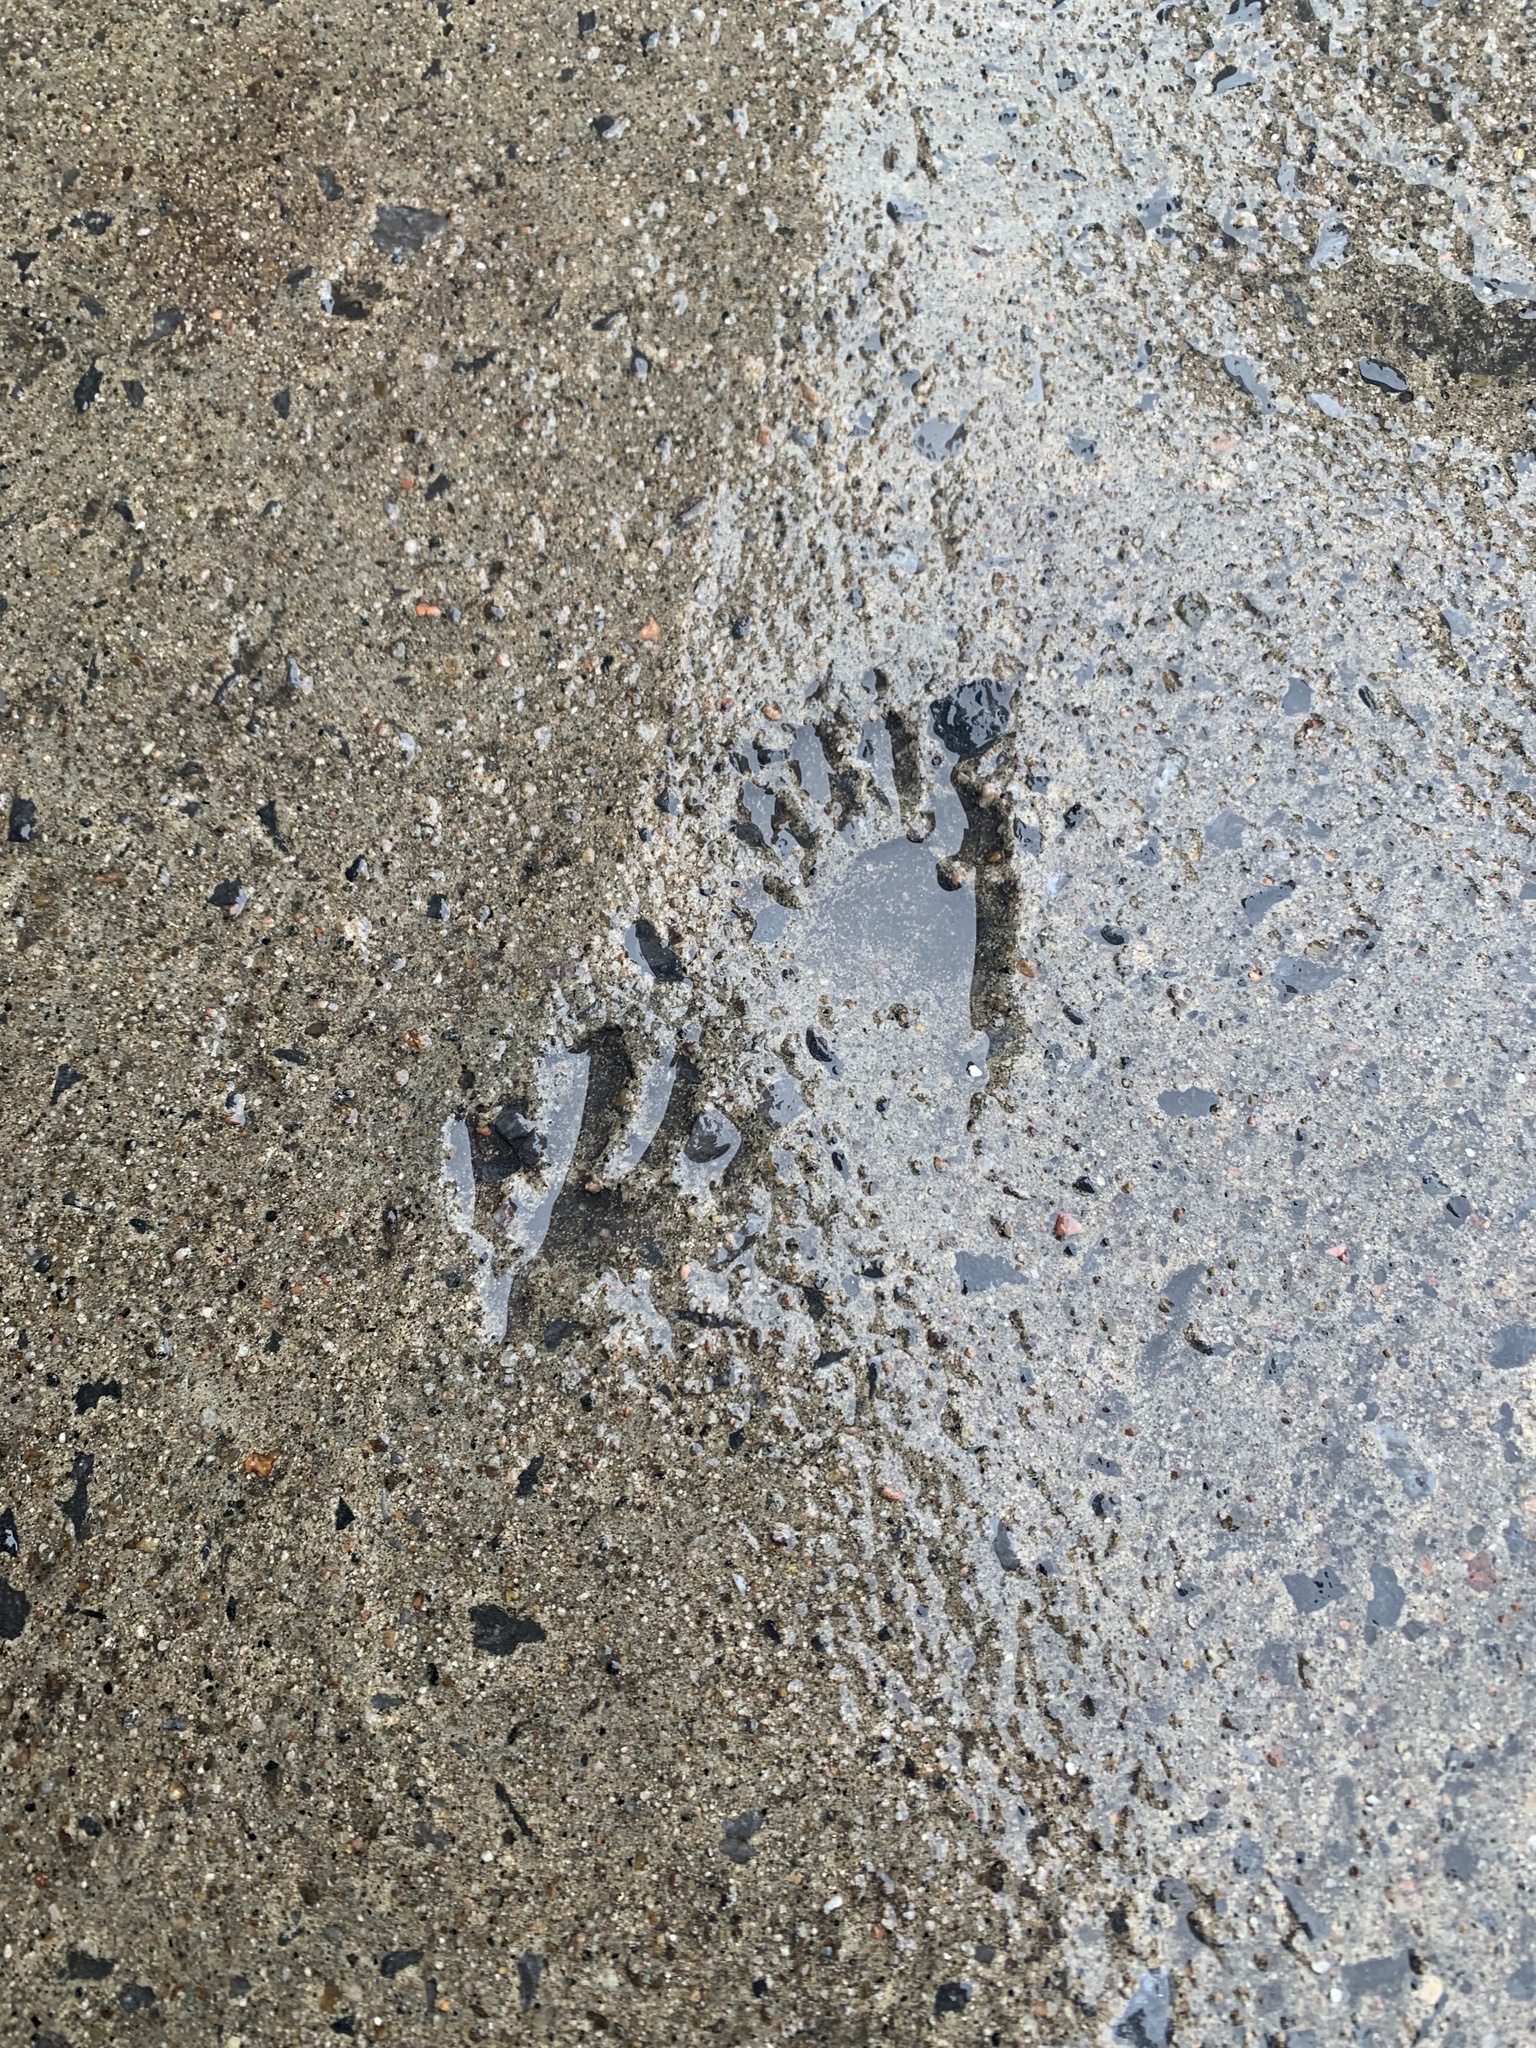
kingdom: Animalia
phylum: Chordata
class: Mammalia
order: Carnivora
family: Procyonidae
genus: Procyon
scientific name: Procyon lotor
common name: Raccoon
